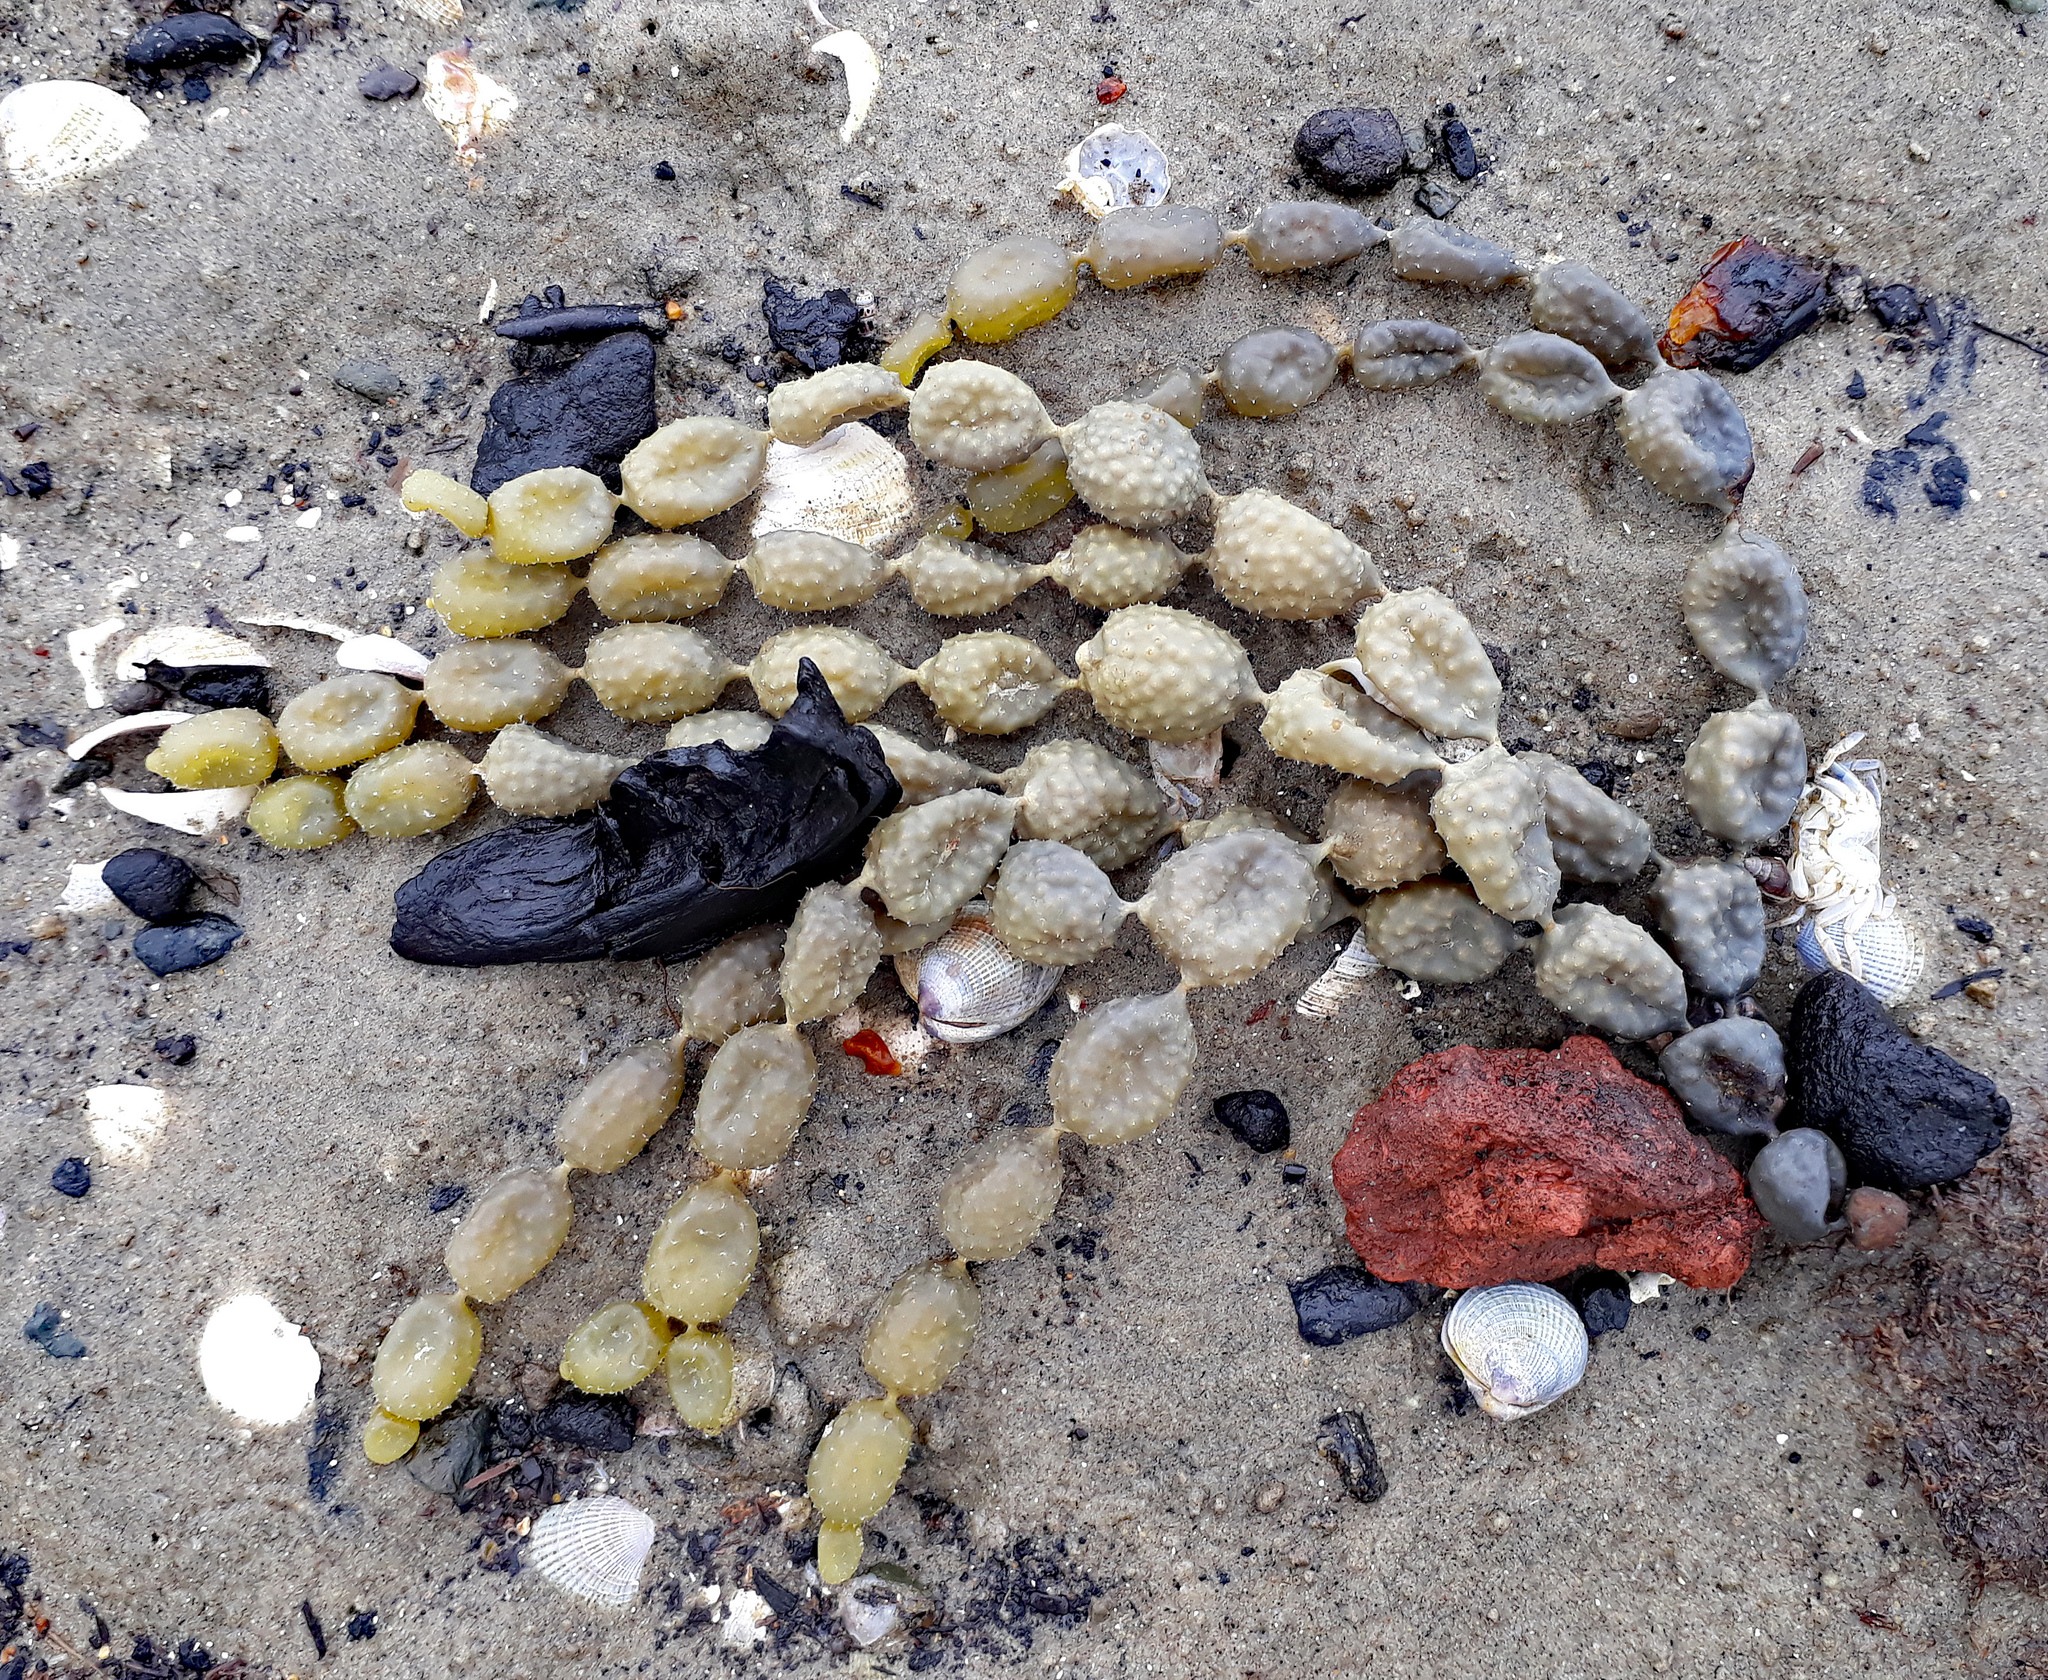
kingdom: Chromista
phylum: Ochrophyta
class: Phaeophyceae
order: Fucales
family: Hormosiraceae
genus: Hormosira
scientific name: Hormosira banksii
